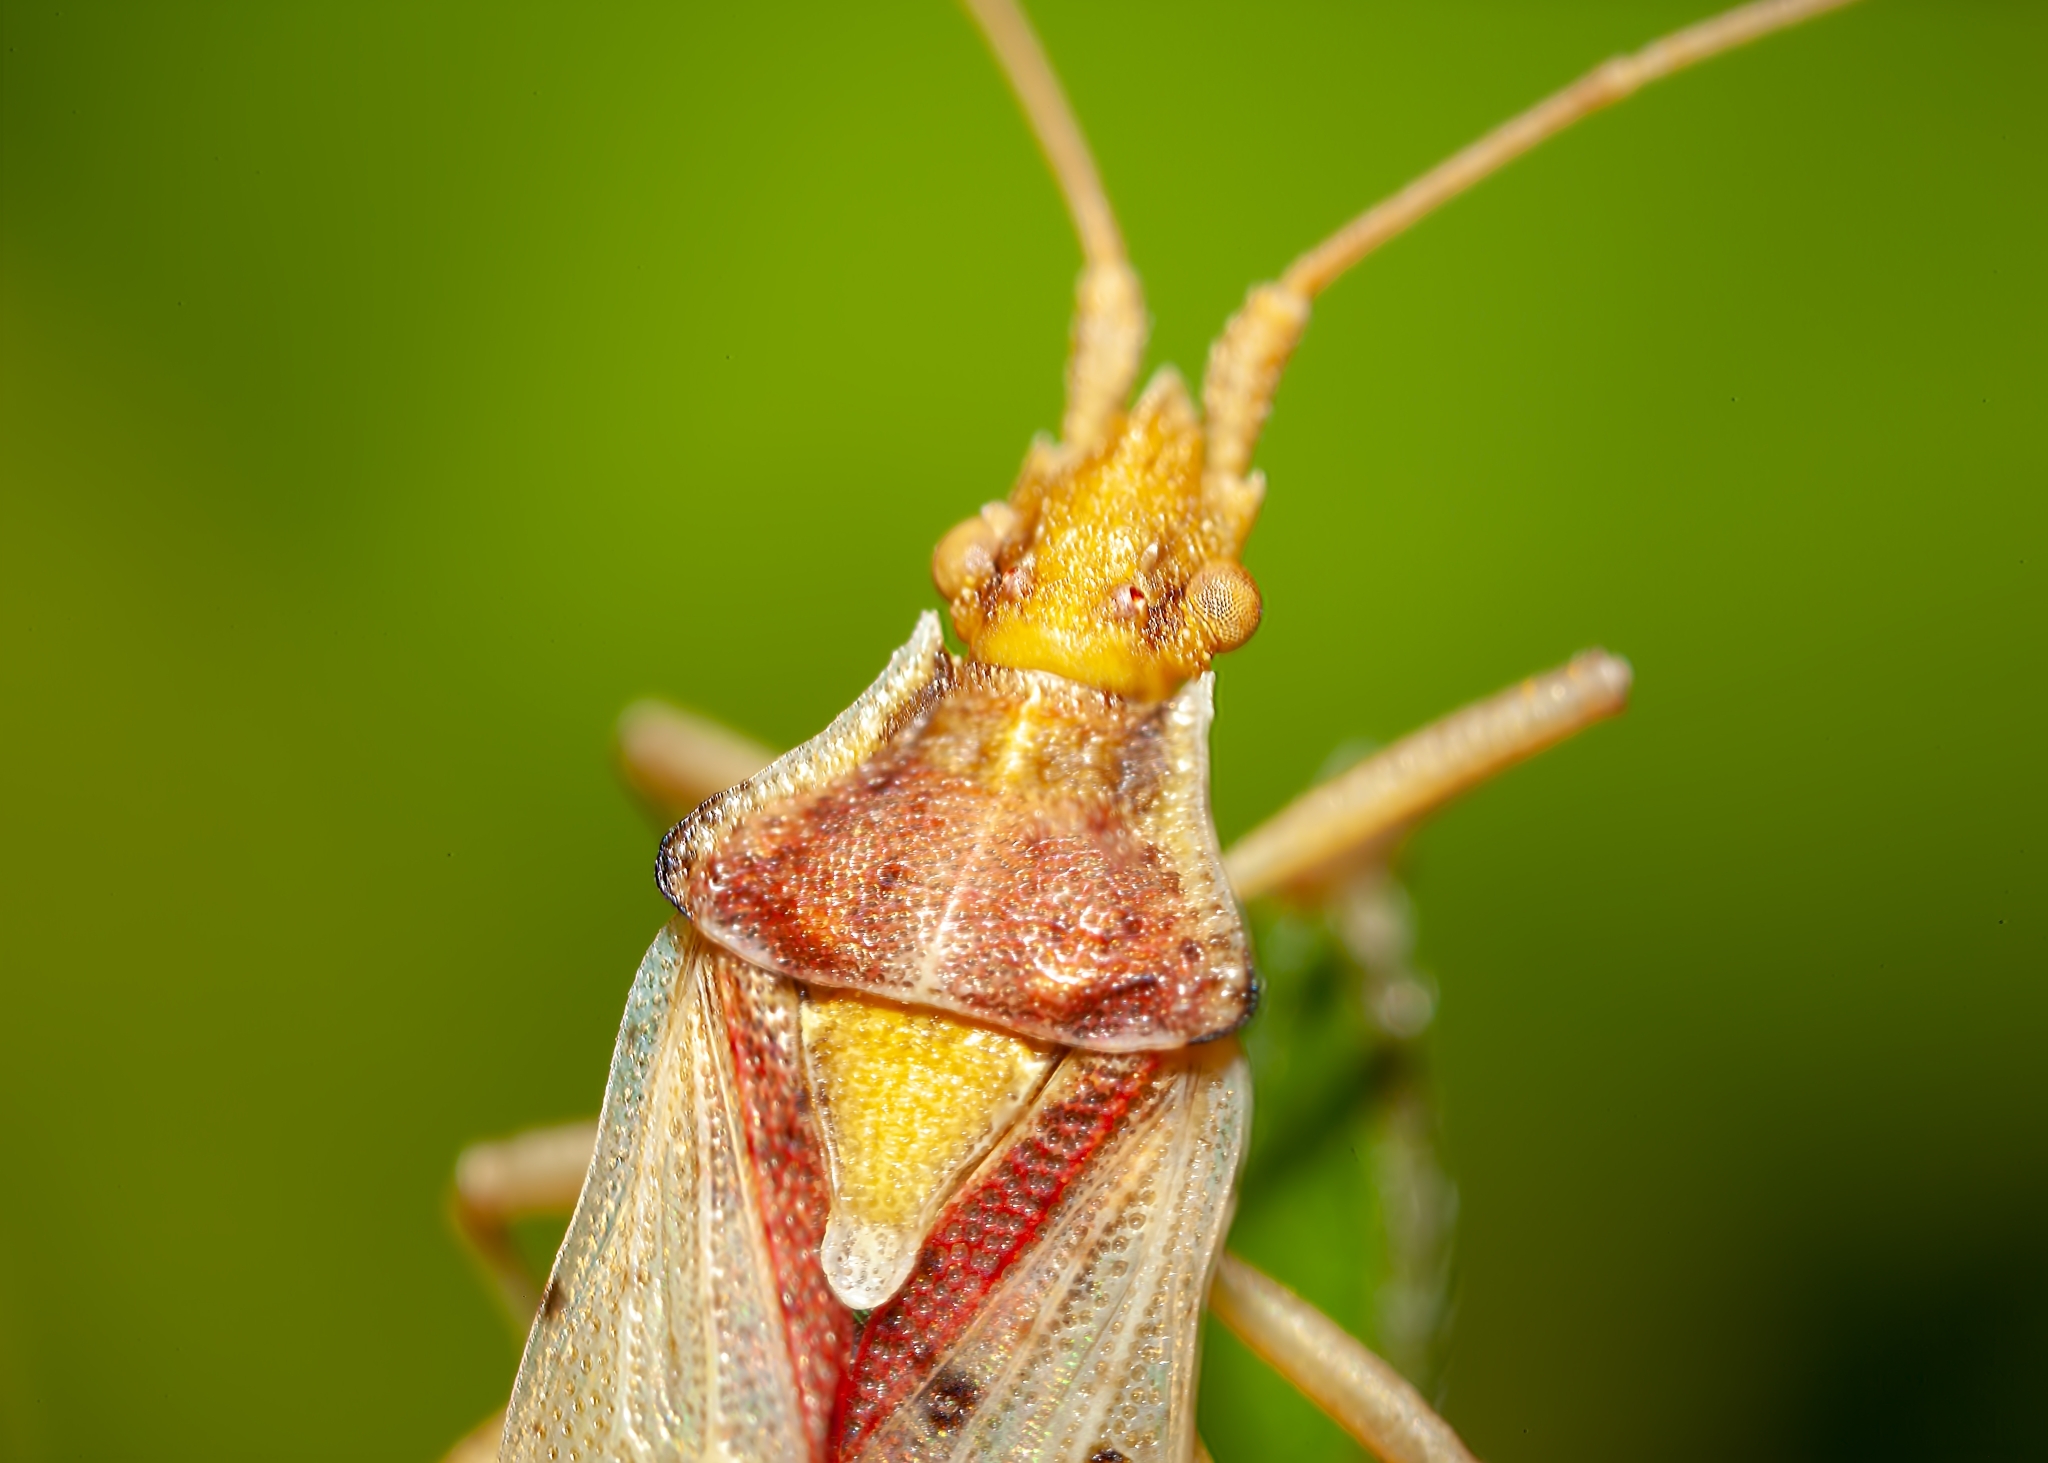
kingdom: Animalia
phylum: Arthropoda
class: Insecta
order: Hemiptera
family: Rhopalidae
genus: Harmostes
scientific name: Harmostes reflexulus
